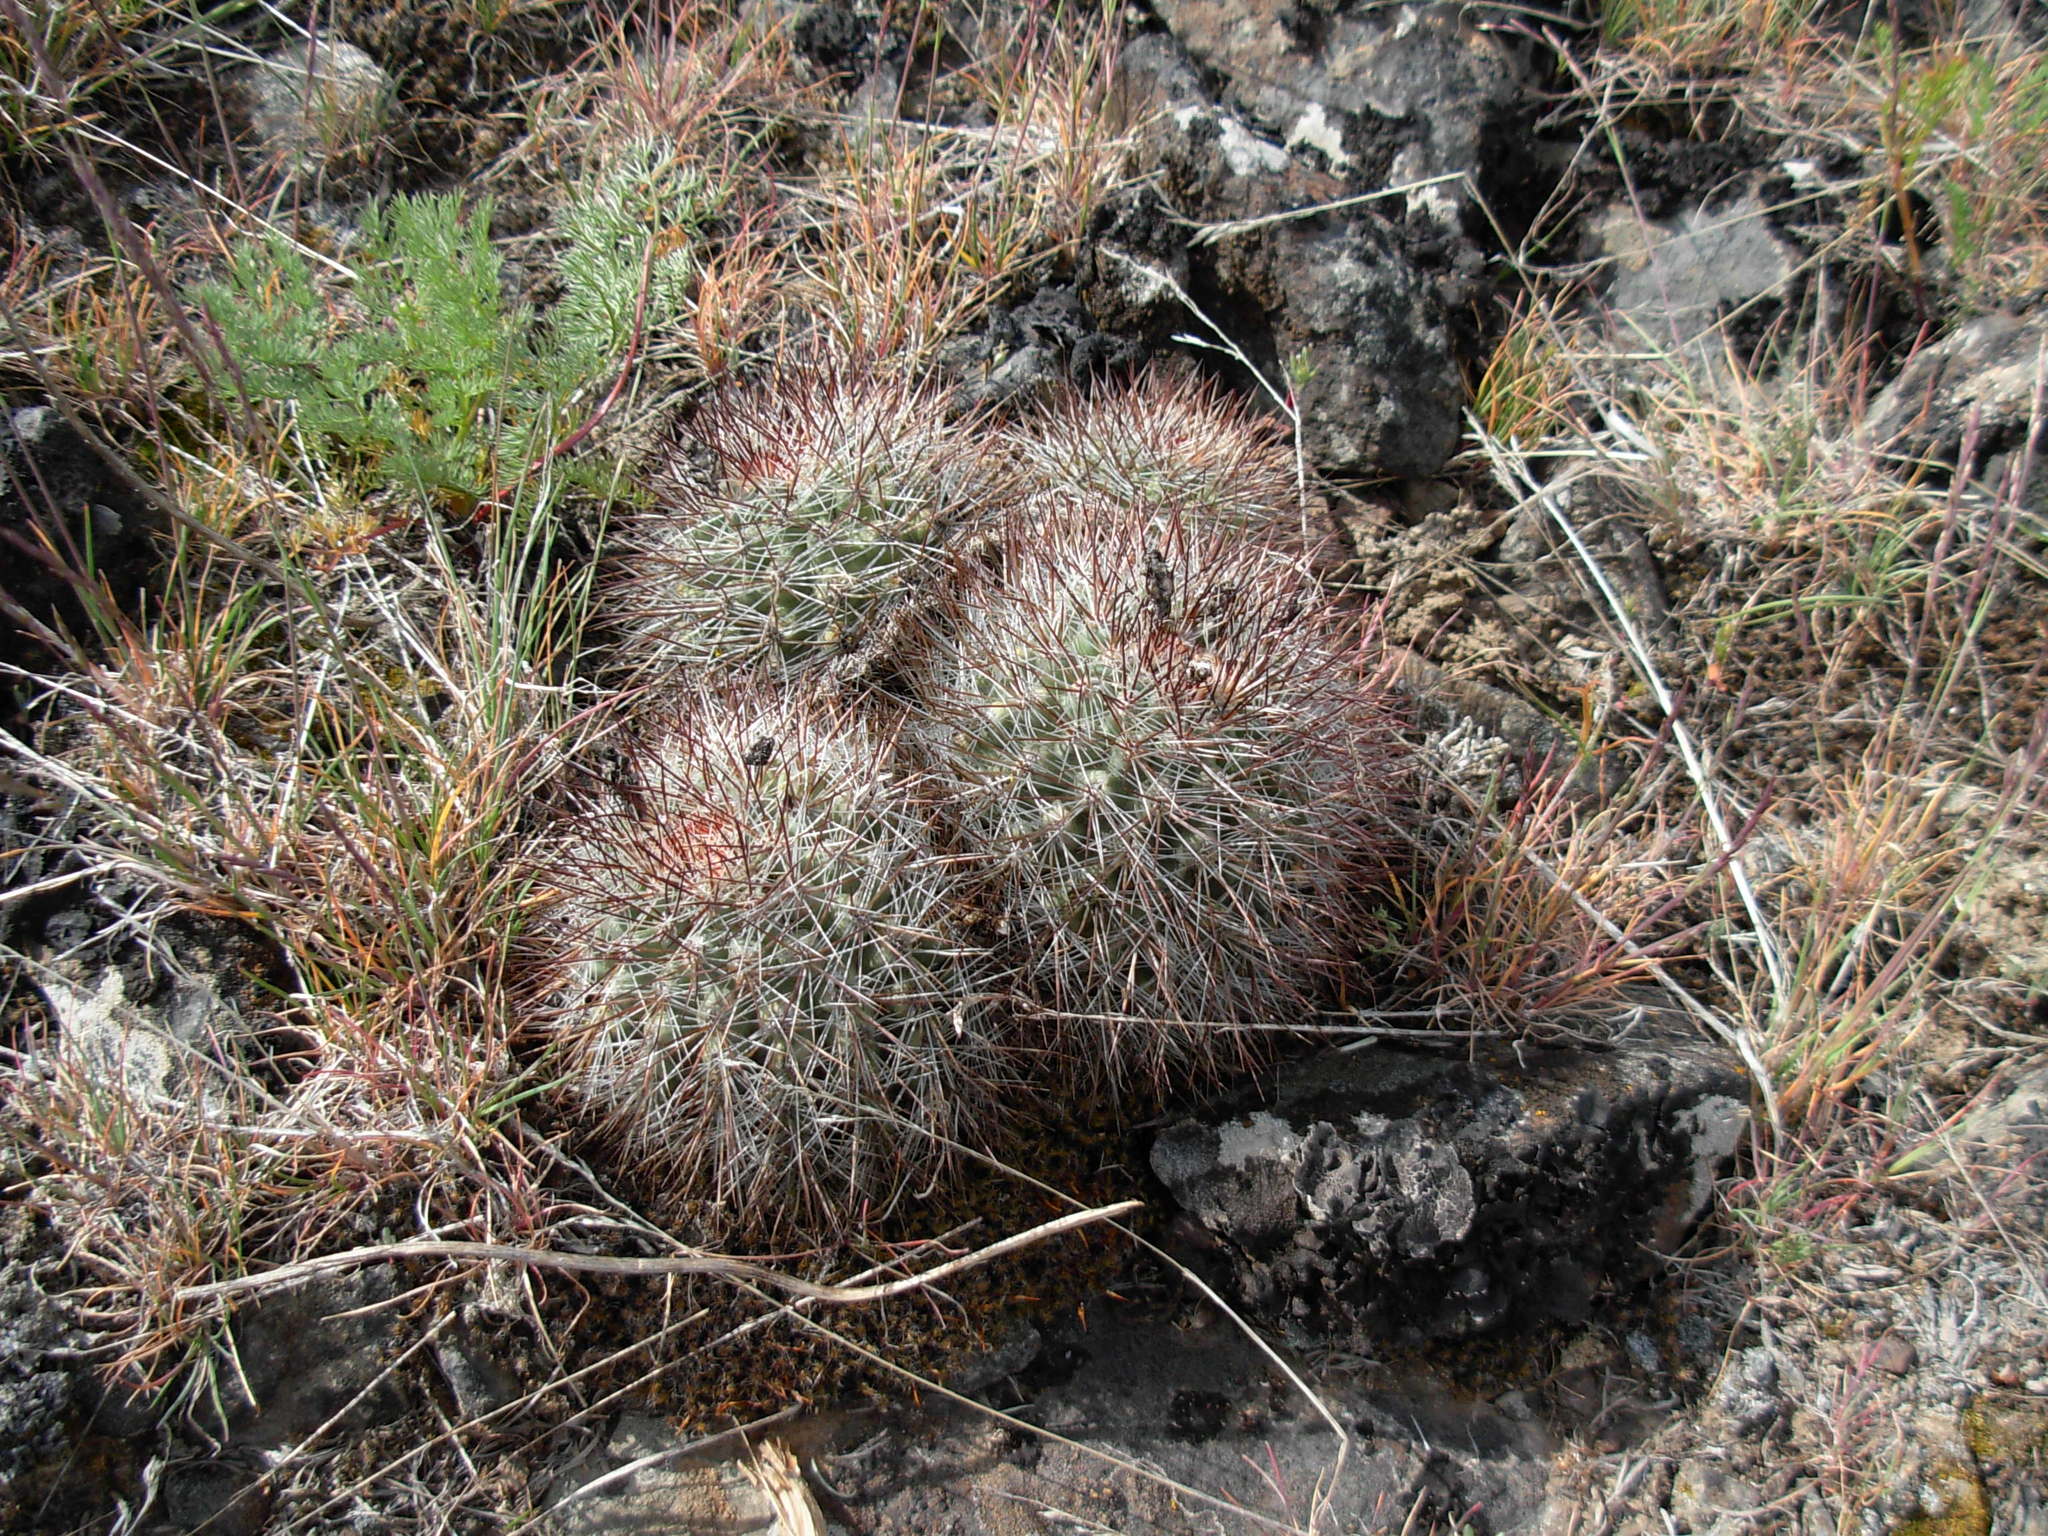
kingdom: Plantae
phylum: Tracheophyta
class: Magnoliopsida
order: Caryophyllales
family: Cactaceae
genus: Pediocactus
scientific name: Pediocactus nigrispinus
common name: Simpson's hedgehog cactus
